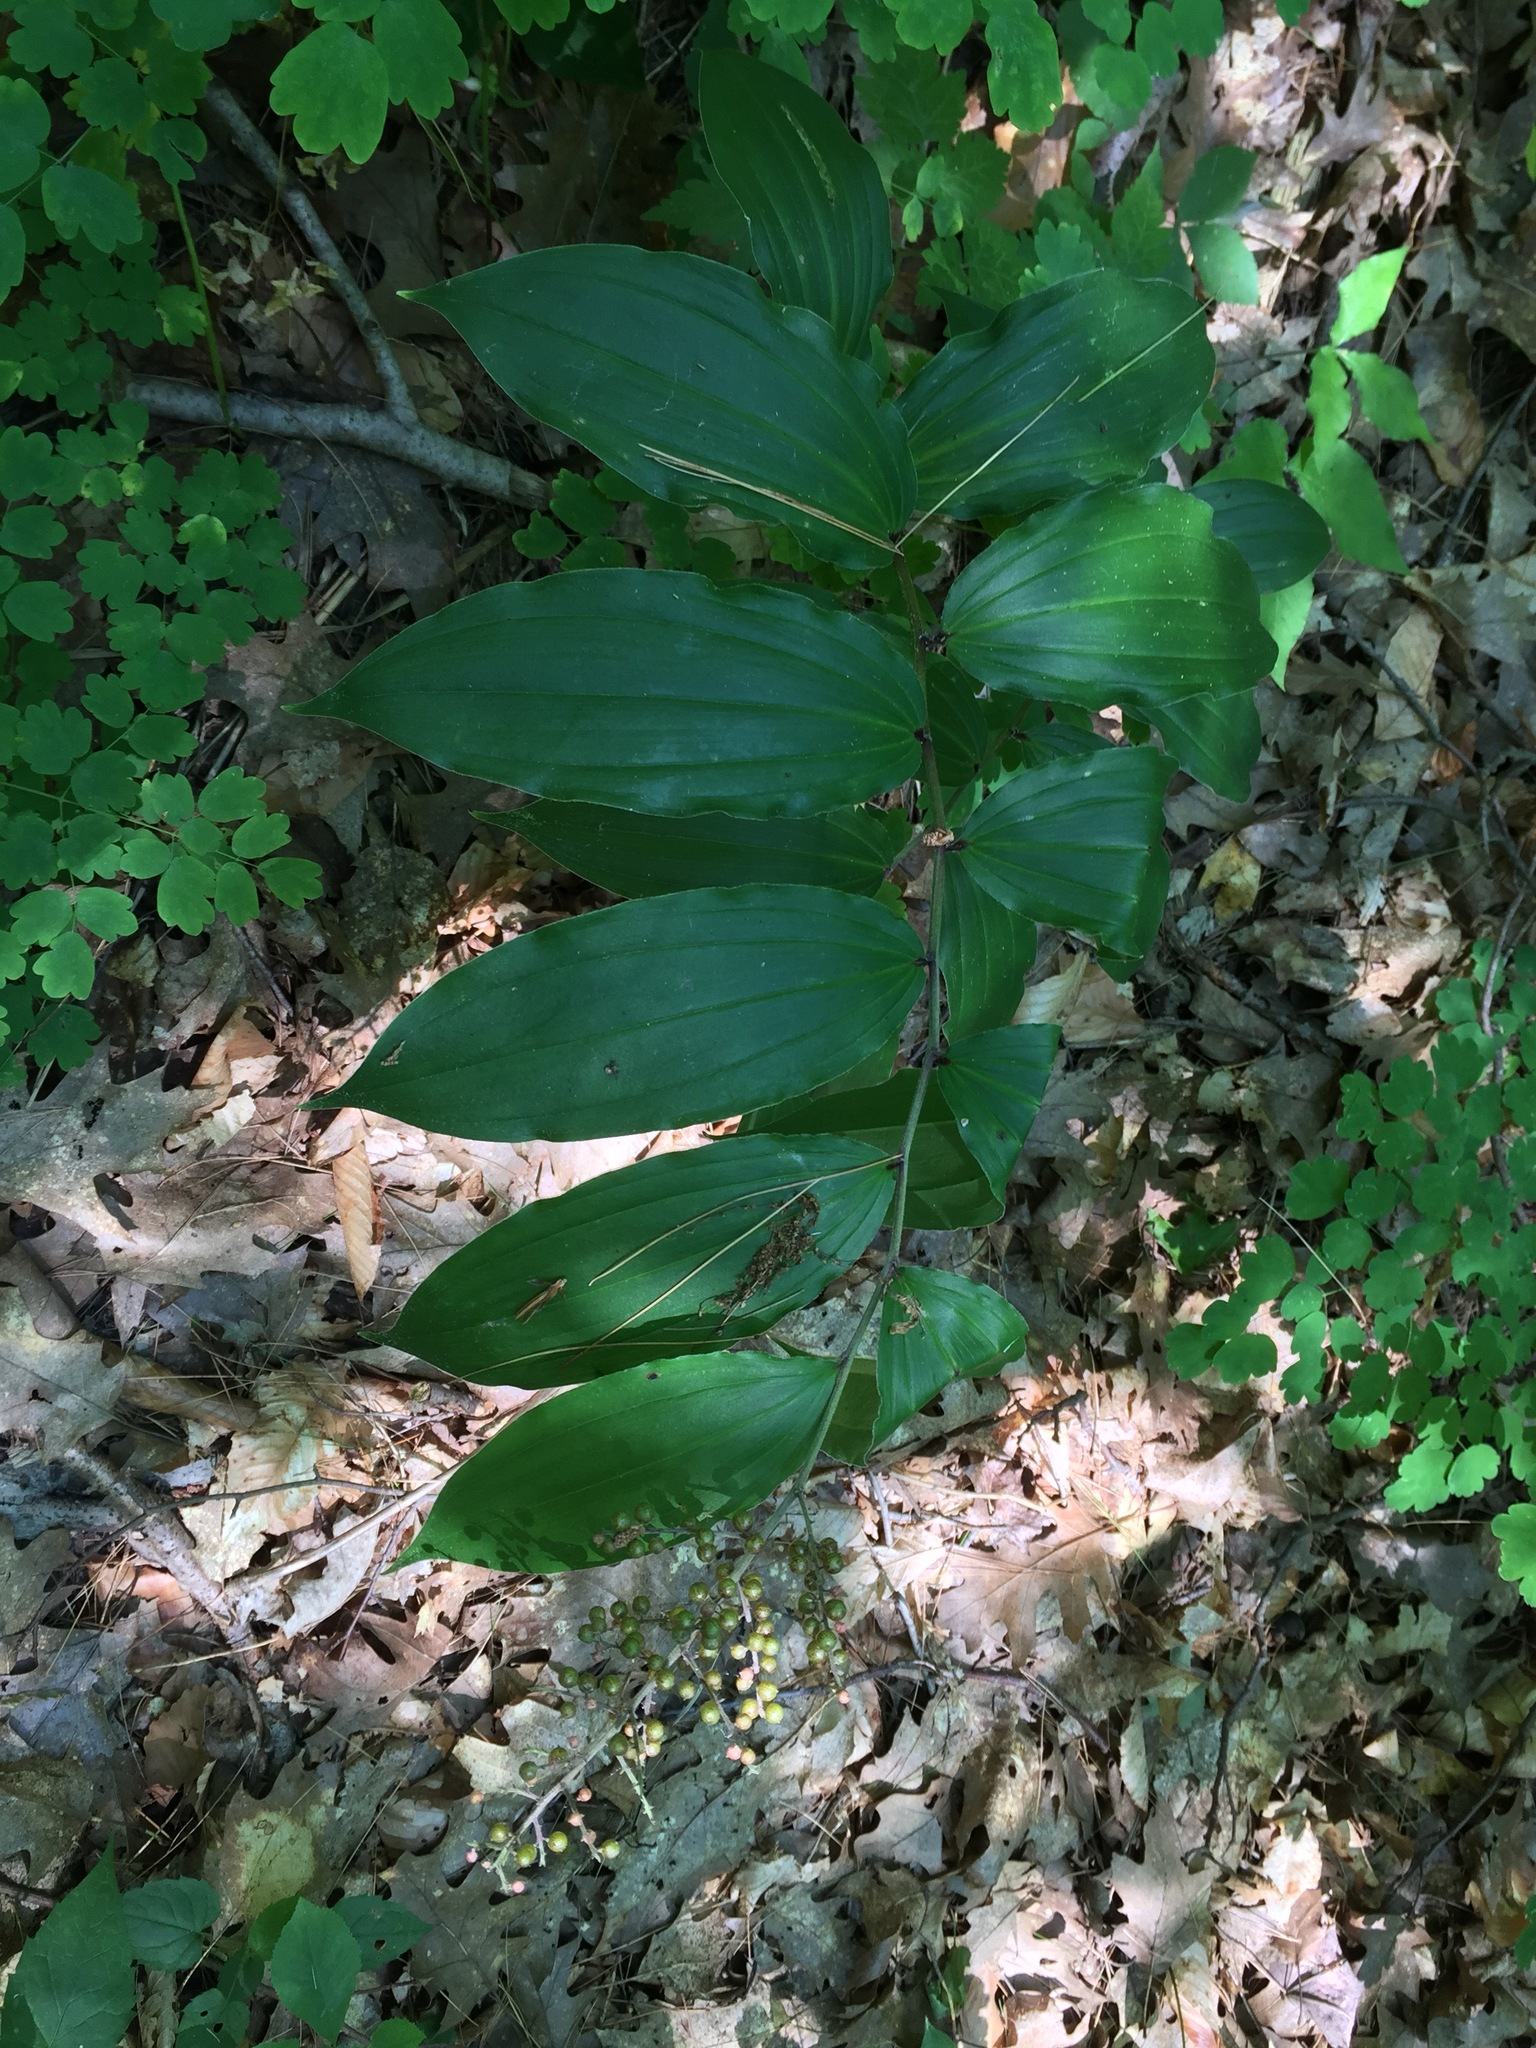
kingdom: Plantae
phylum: Tracheophyta
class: Liliopsida
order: Asparagales
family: Asparagaceae
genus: Maianthemum
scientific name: Maianthemum racemosum
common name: False spikenard
